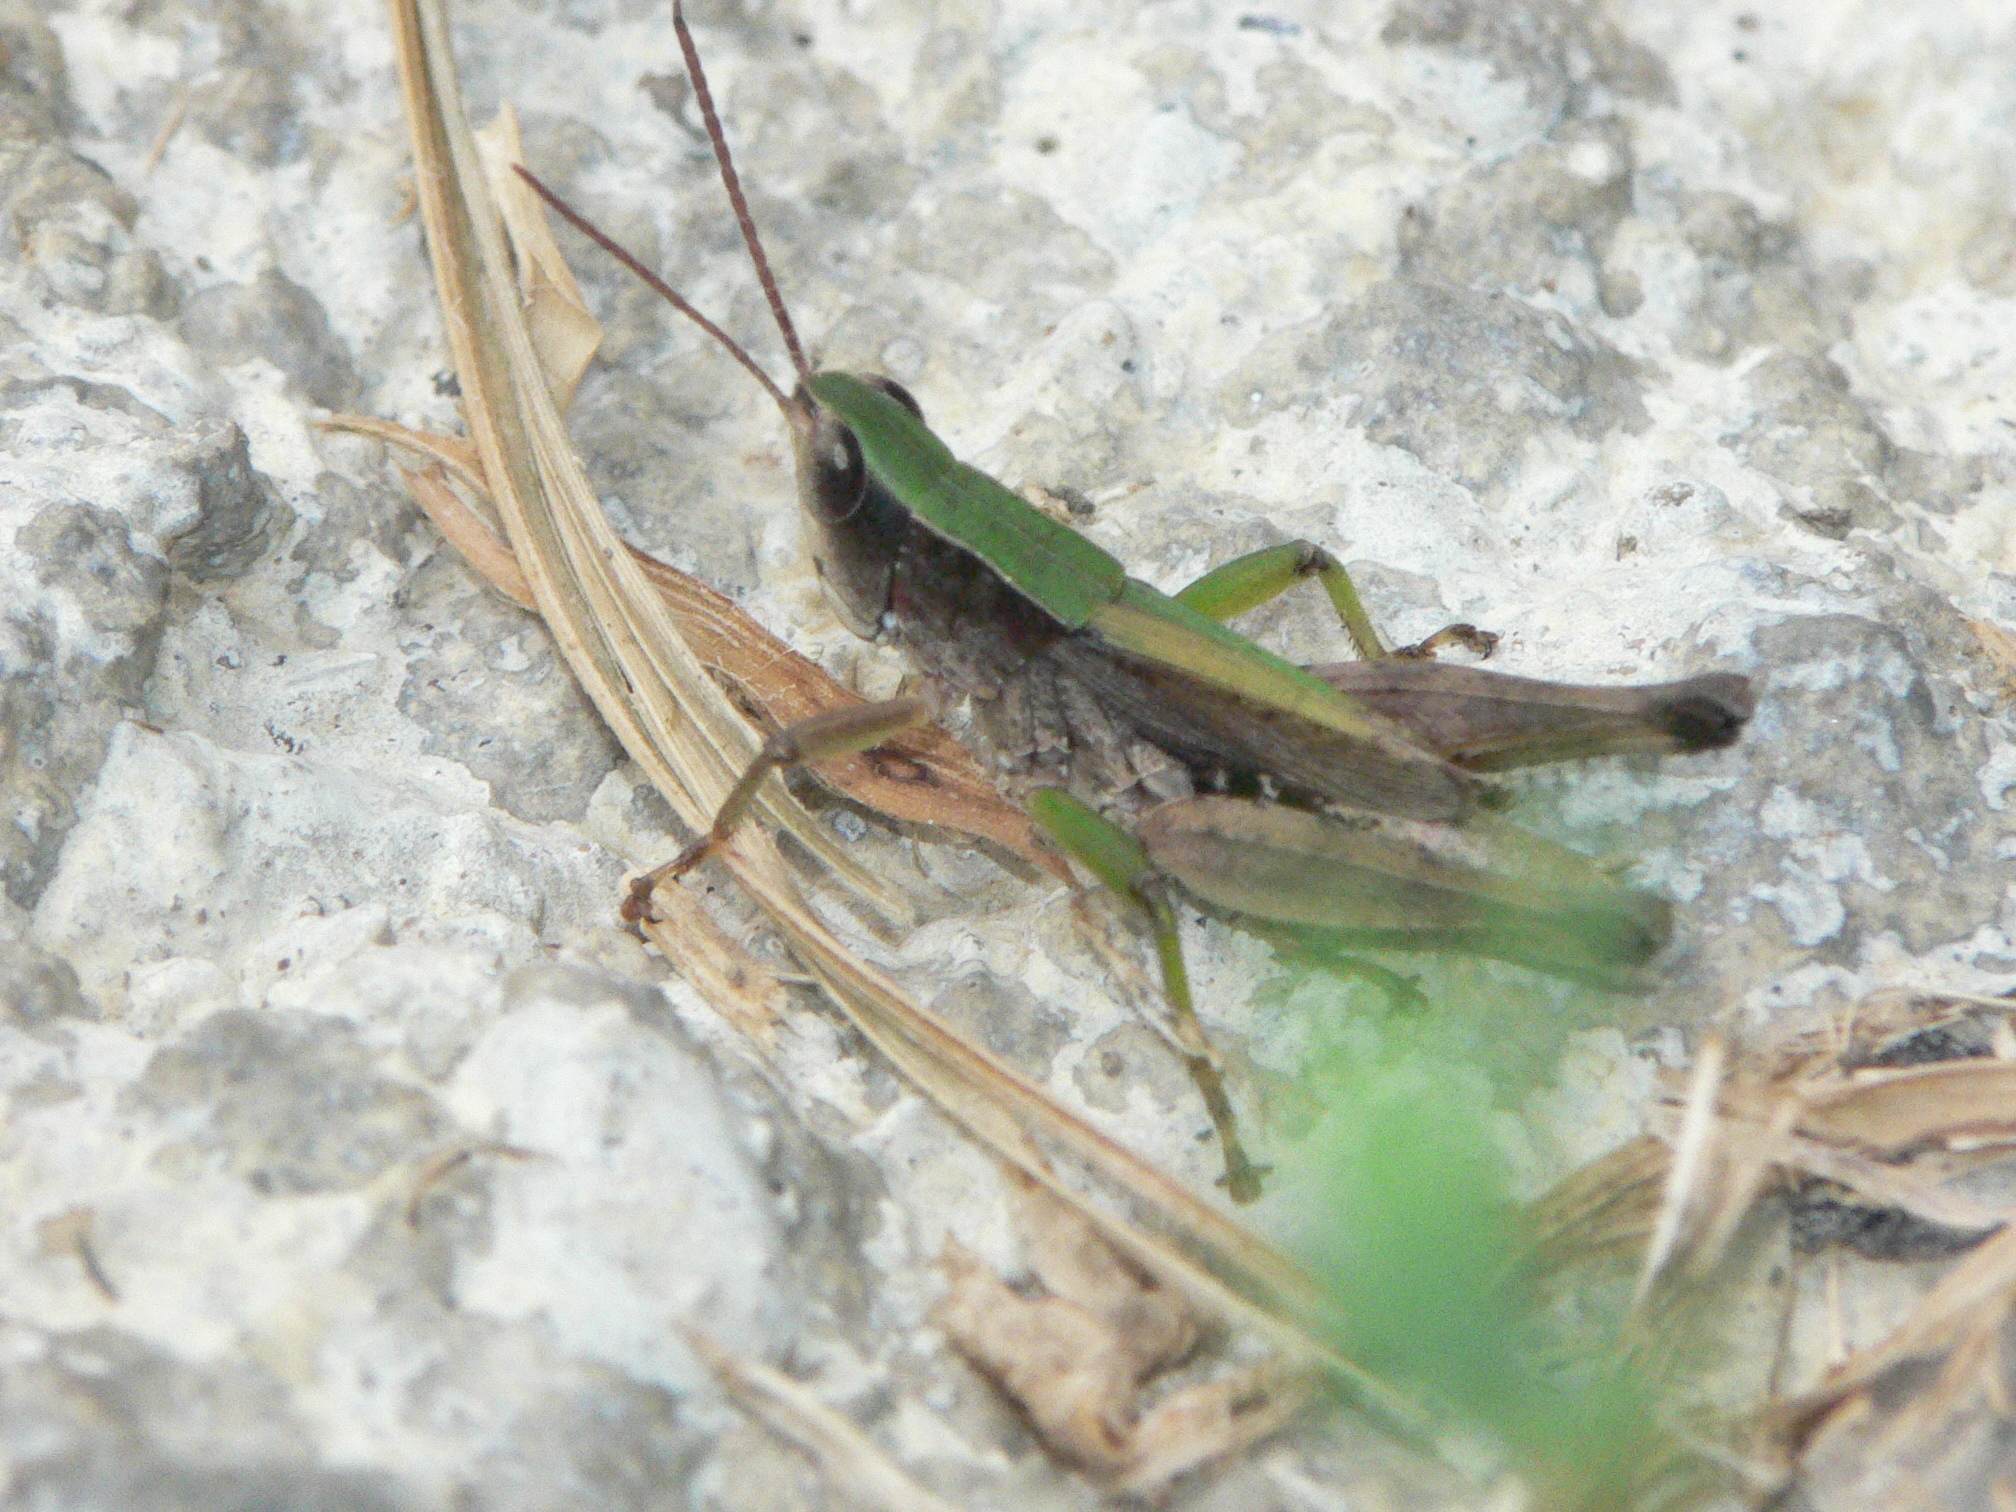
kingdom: Animalia
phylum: Arthropoda
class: Insecta
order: Orthoptera
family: Acrididae
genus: Dichromorpha
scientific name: Dichromorpha viridis
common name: Short-winged green grasshopper
